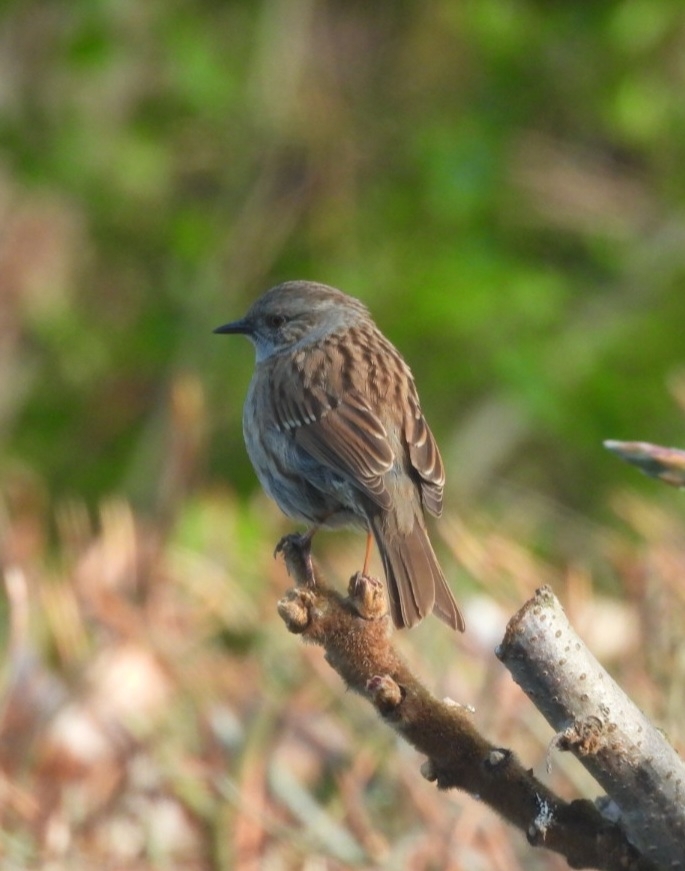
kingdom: Animalia
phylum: Chordata
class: Aves
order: Passeriformes
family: Prunellidae
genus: Prunella
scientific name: Prunella modularis
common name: Dunnock
